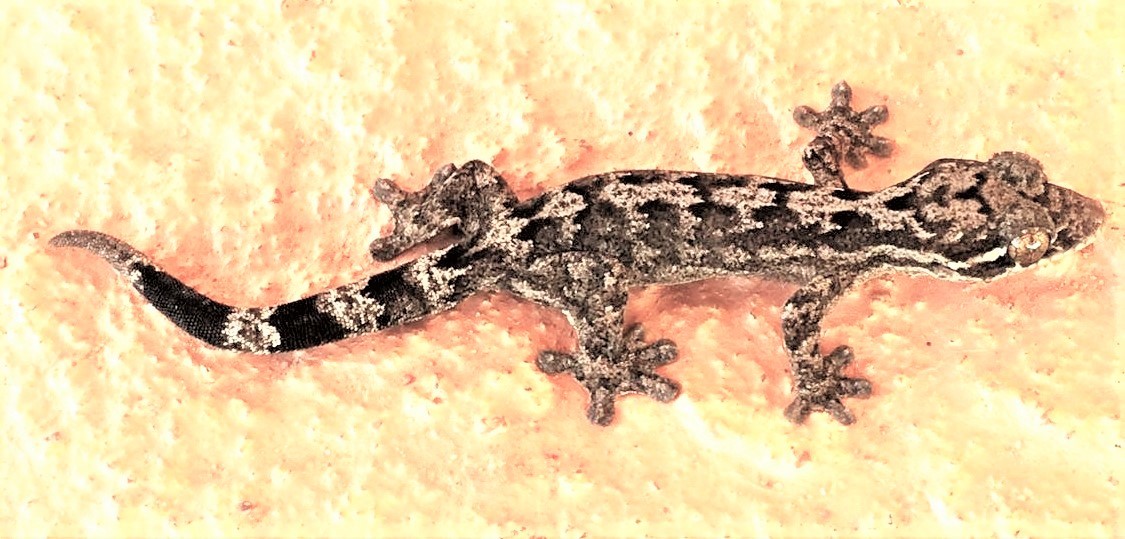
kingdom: Animalia
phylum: Chordata
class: Squamata
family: Phyllodactylidae
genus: Thecadactylus
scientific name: Thecadactylus rapicauda
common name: Turnip-tailed gecko
